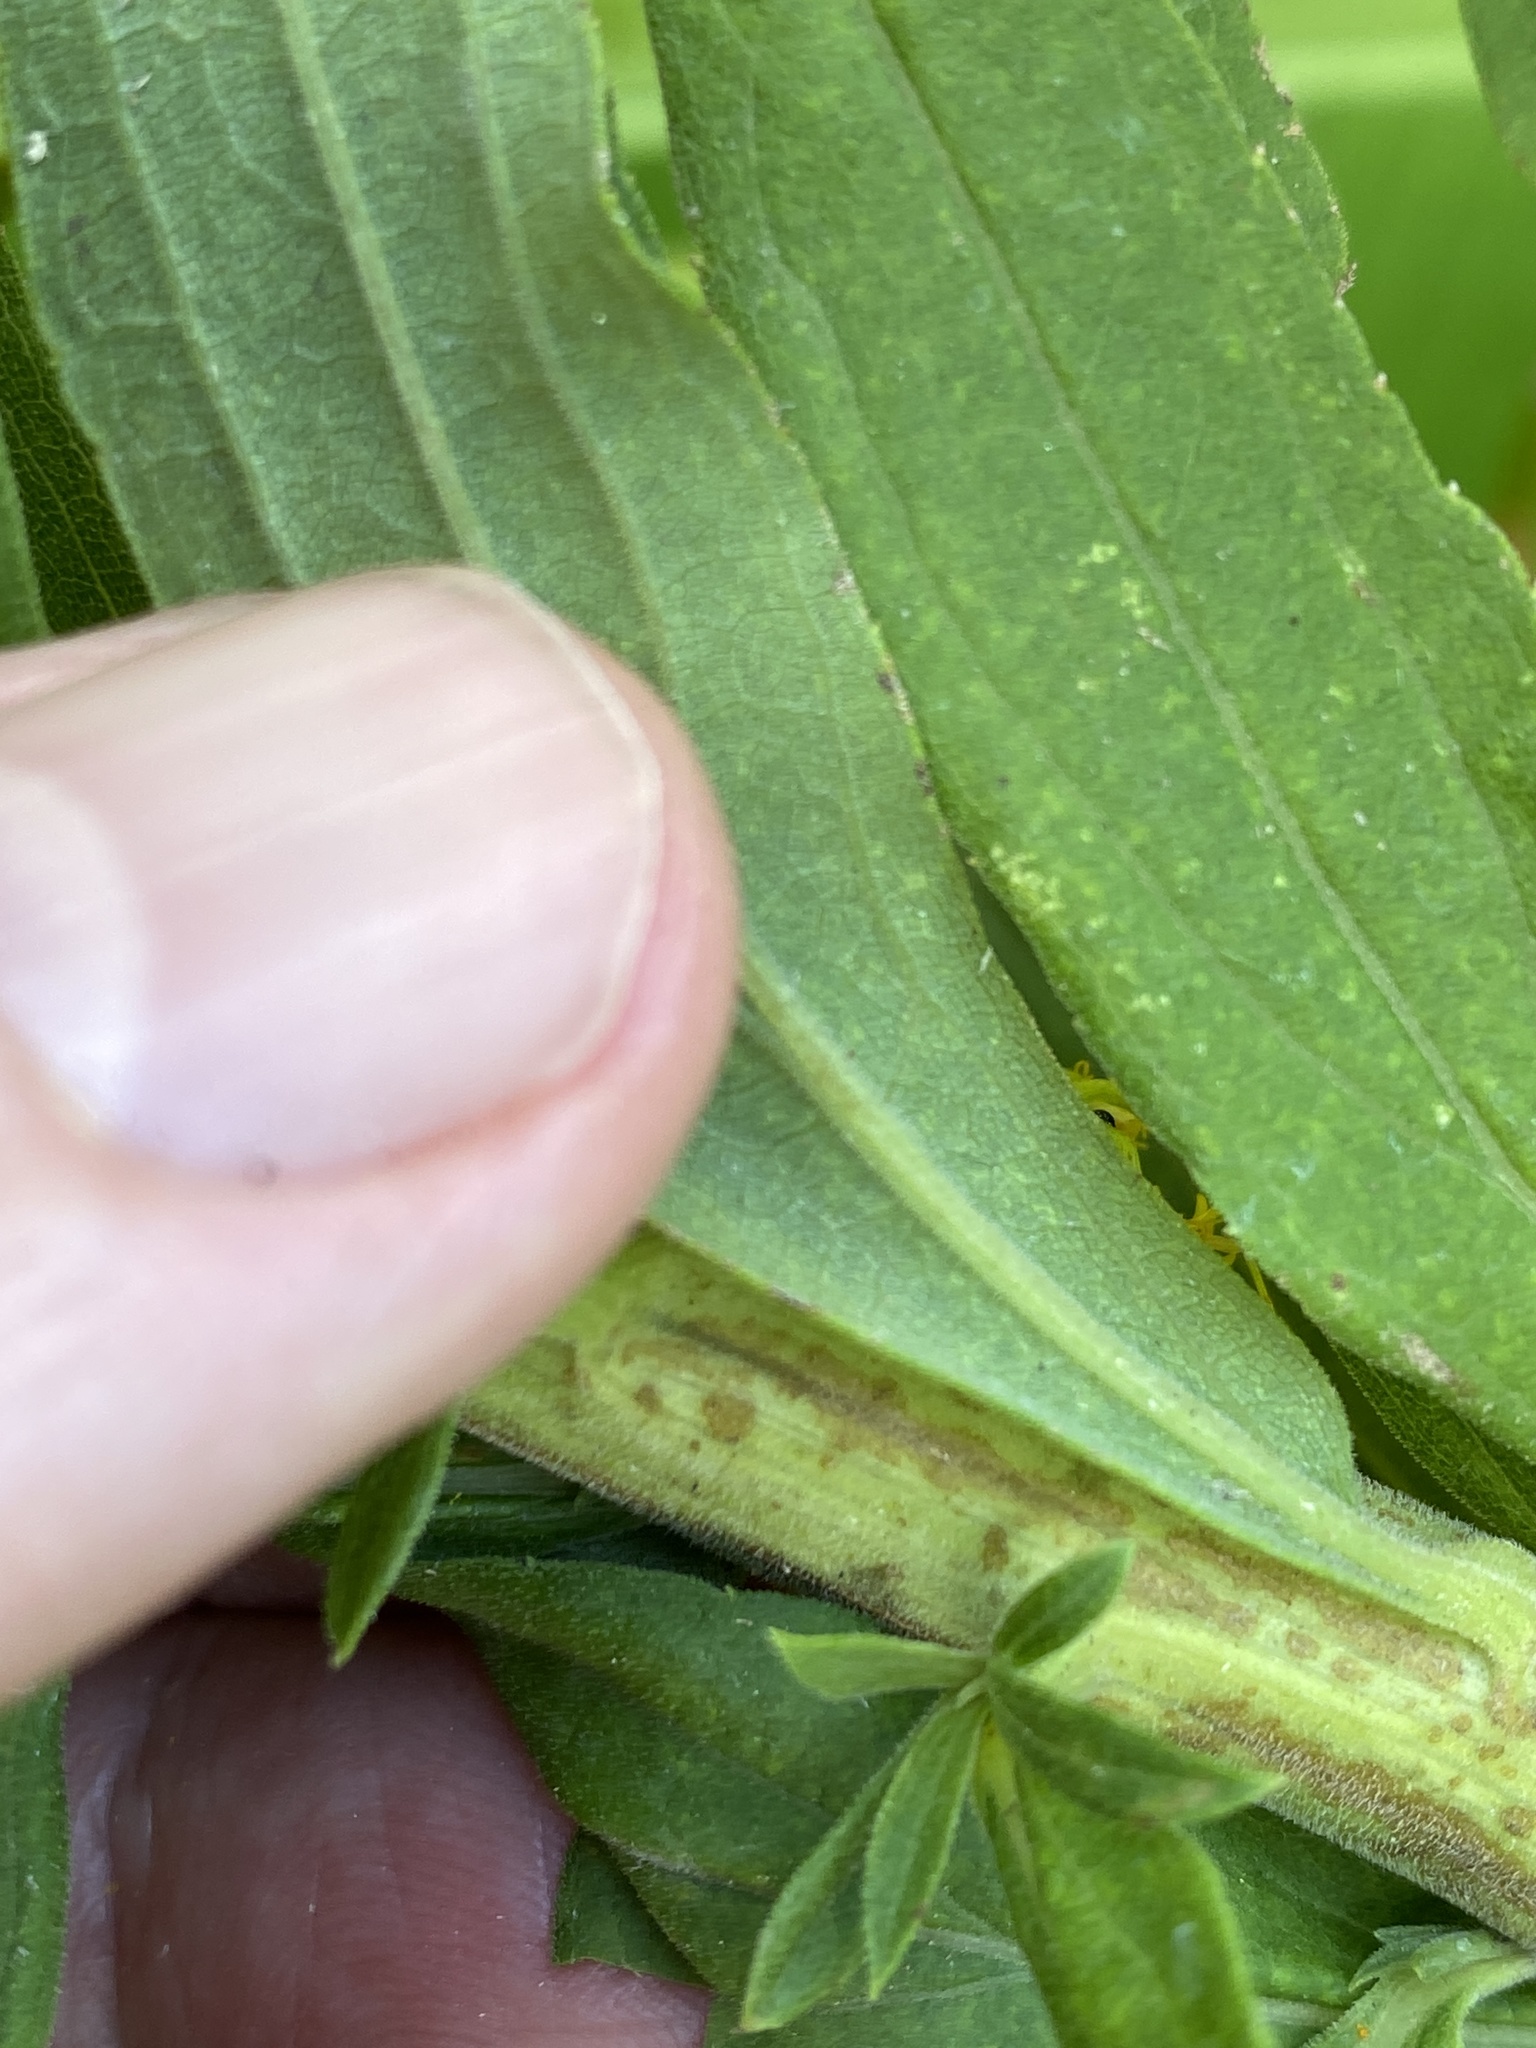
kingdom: Plantae
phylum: Tracheophyta
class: Magnoliopsida
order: Asterales
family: Asteraceae
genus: Solidago
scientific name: Solidago altissima
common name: Late goldenrod
